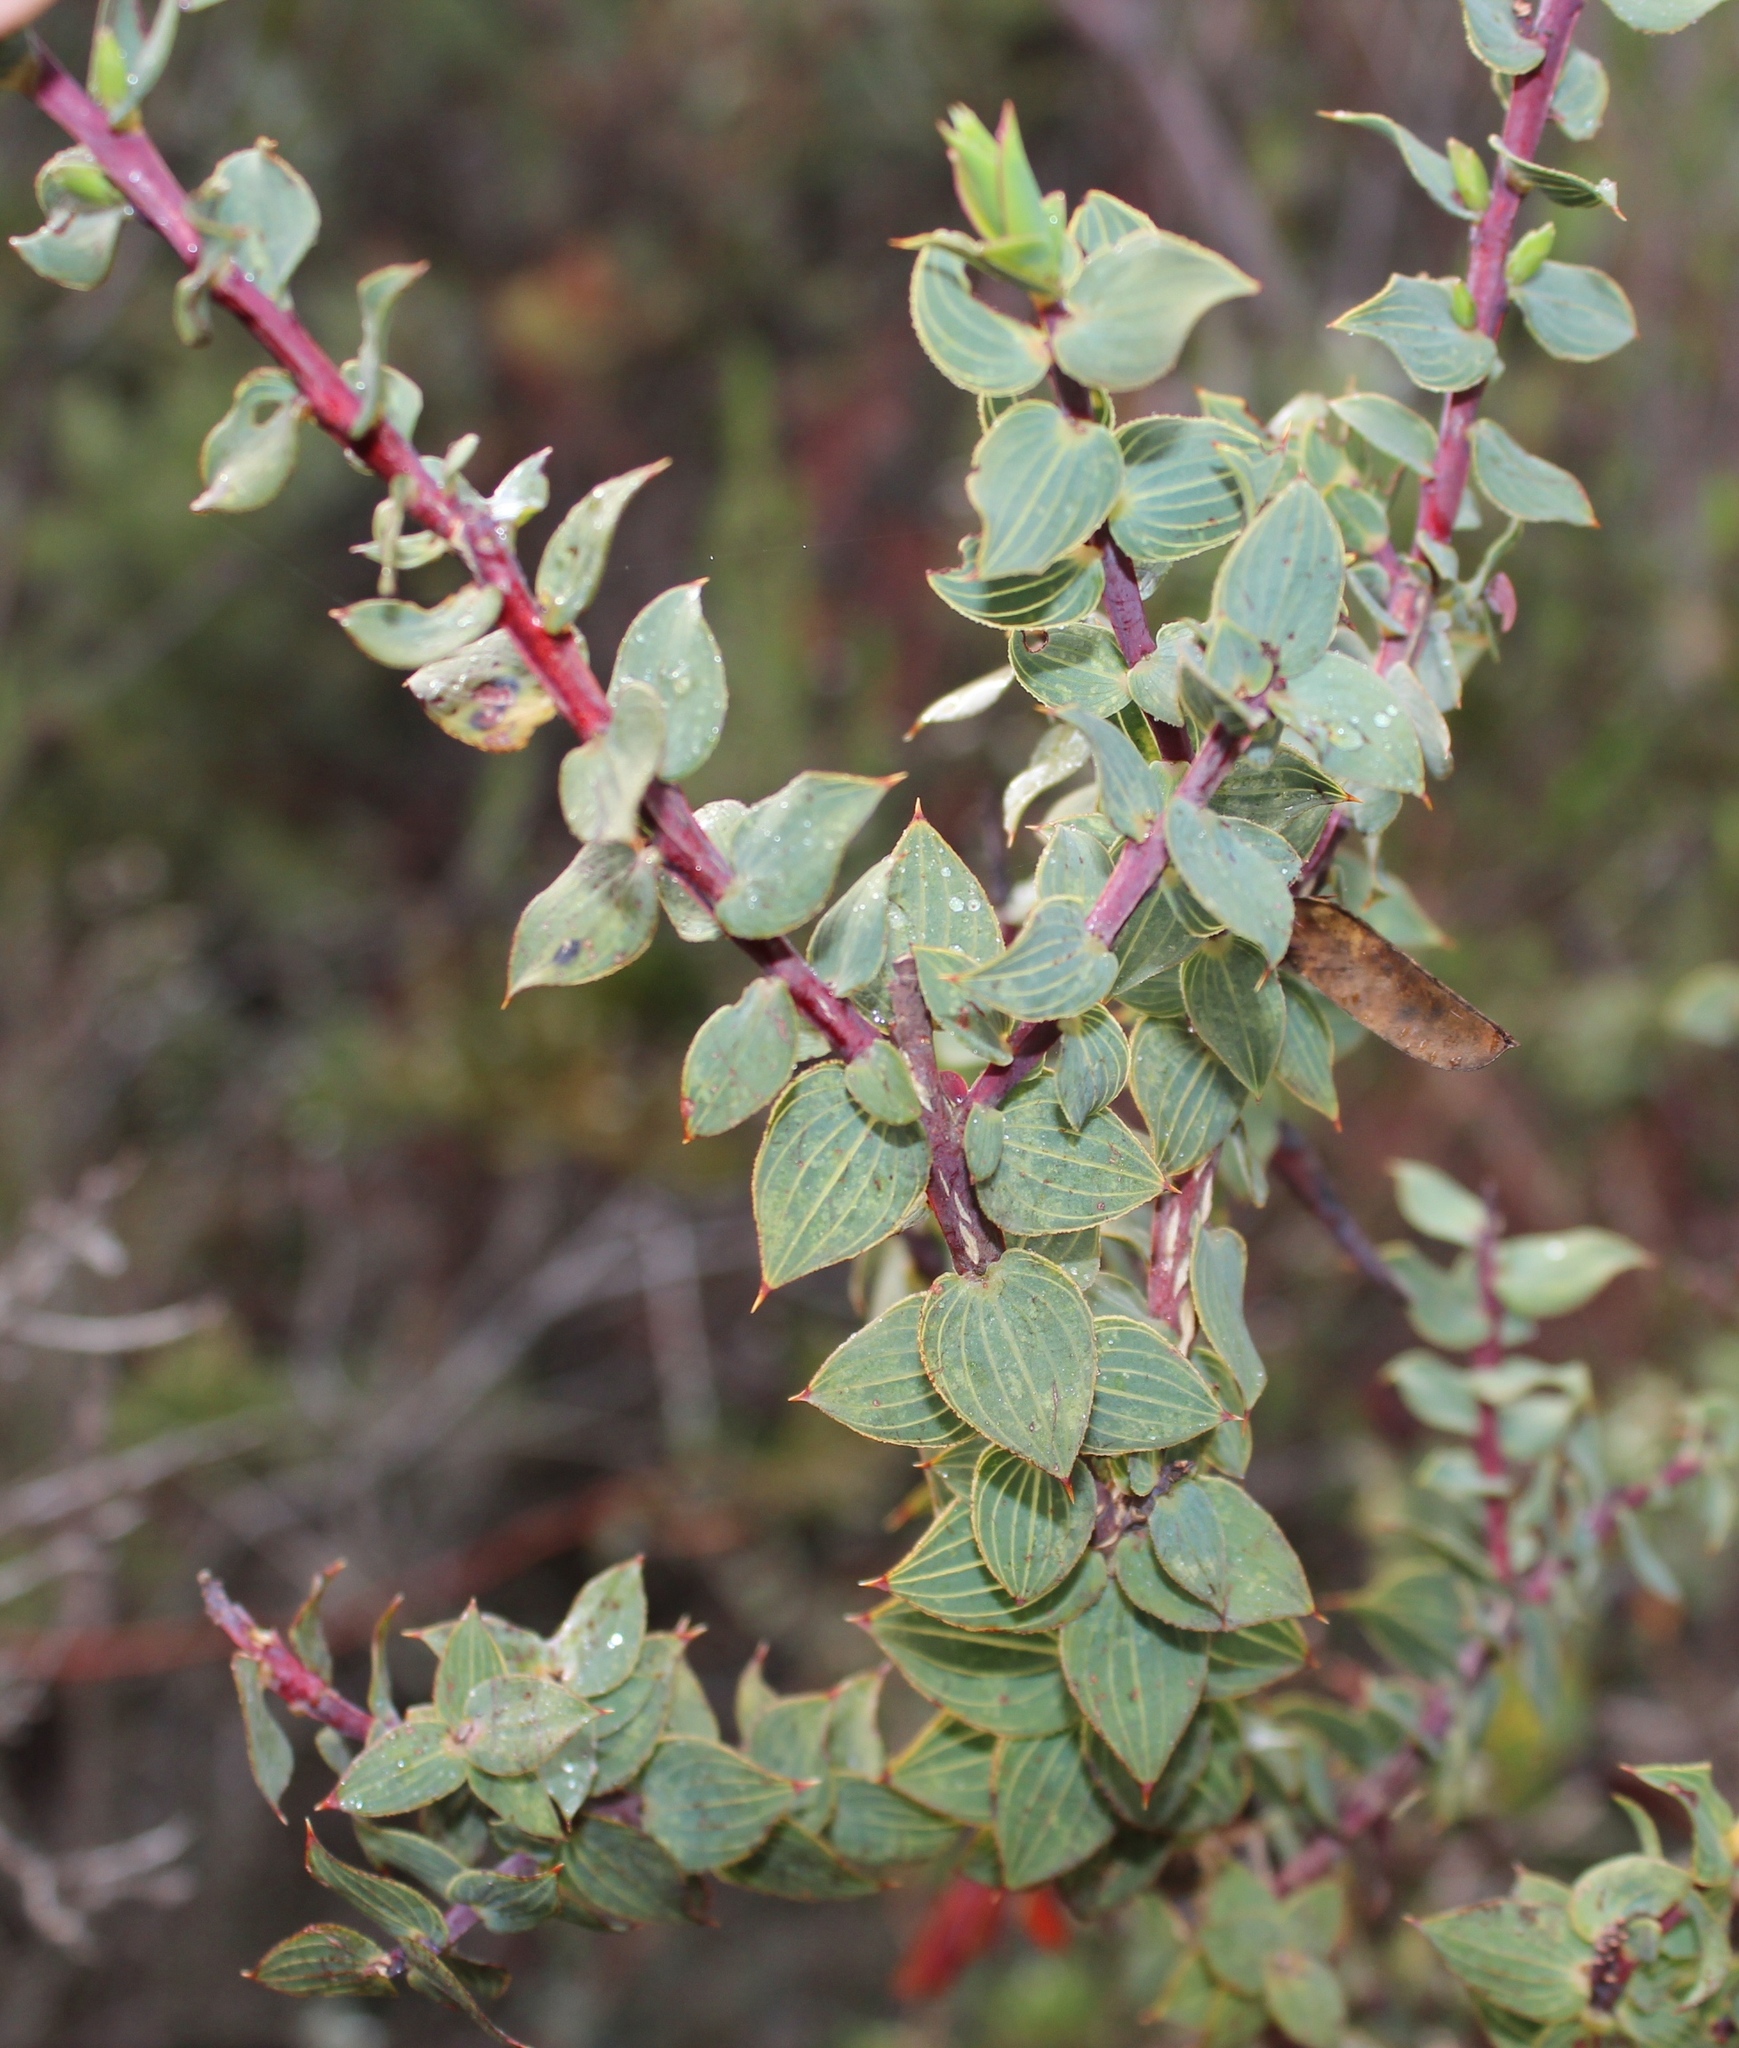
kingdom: Plantae
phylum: Tracheophyta
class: Magnoliopsida
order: Fabales
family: Fabaceae
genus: Aspalathus
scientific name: Aspalathus crenata
